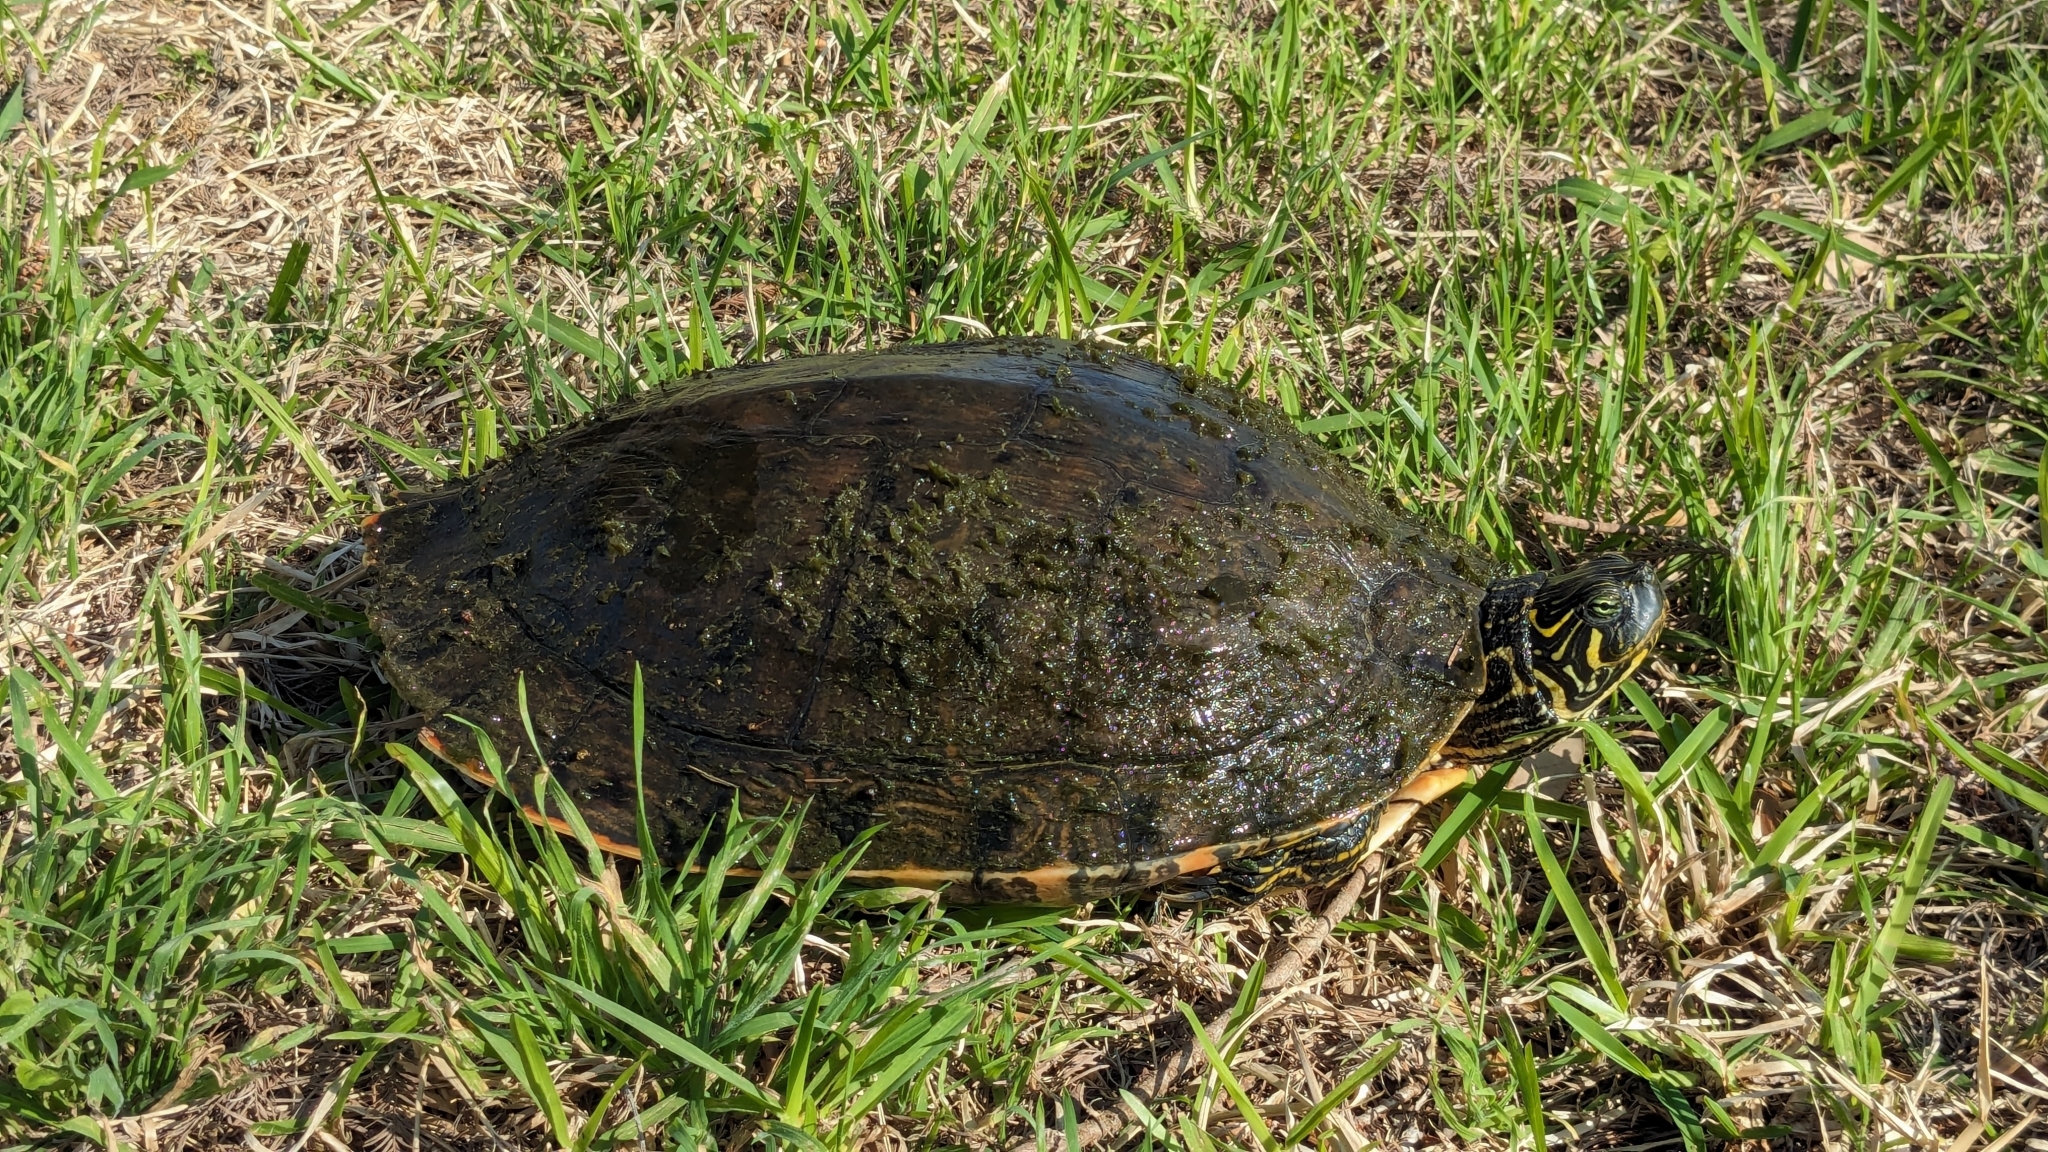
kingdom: Animalia
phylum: Chordata
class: Testudines
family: Emydidae
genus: Pseudemys
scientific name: Pseudemys texana
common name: Texas river cooter
